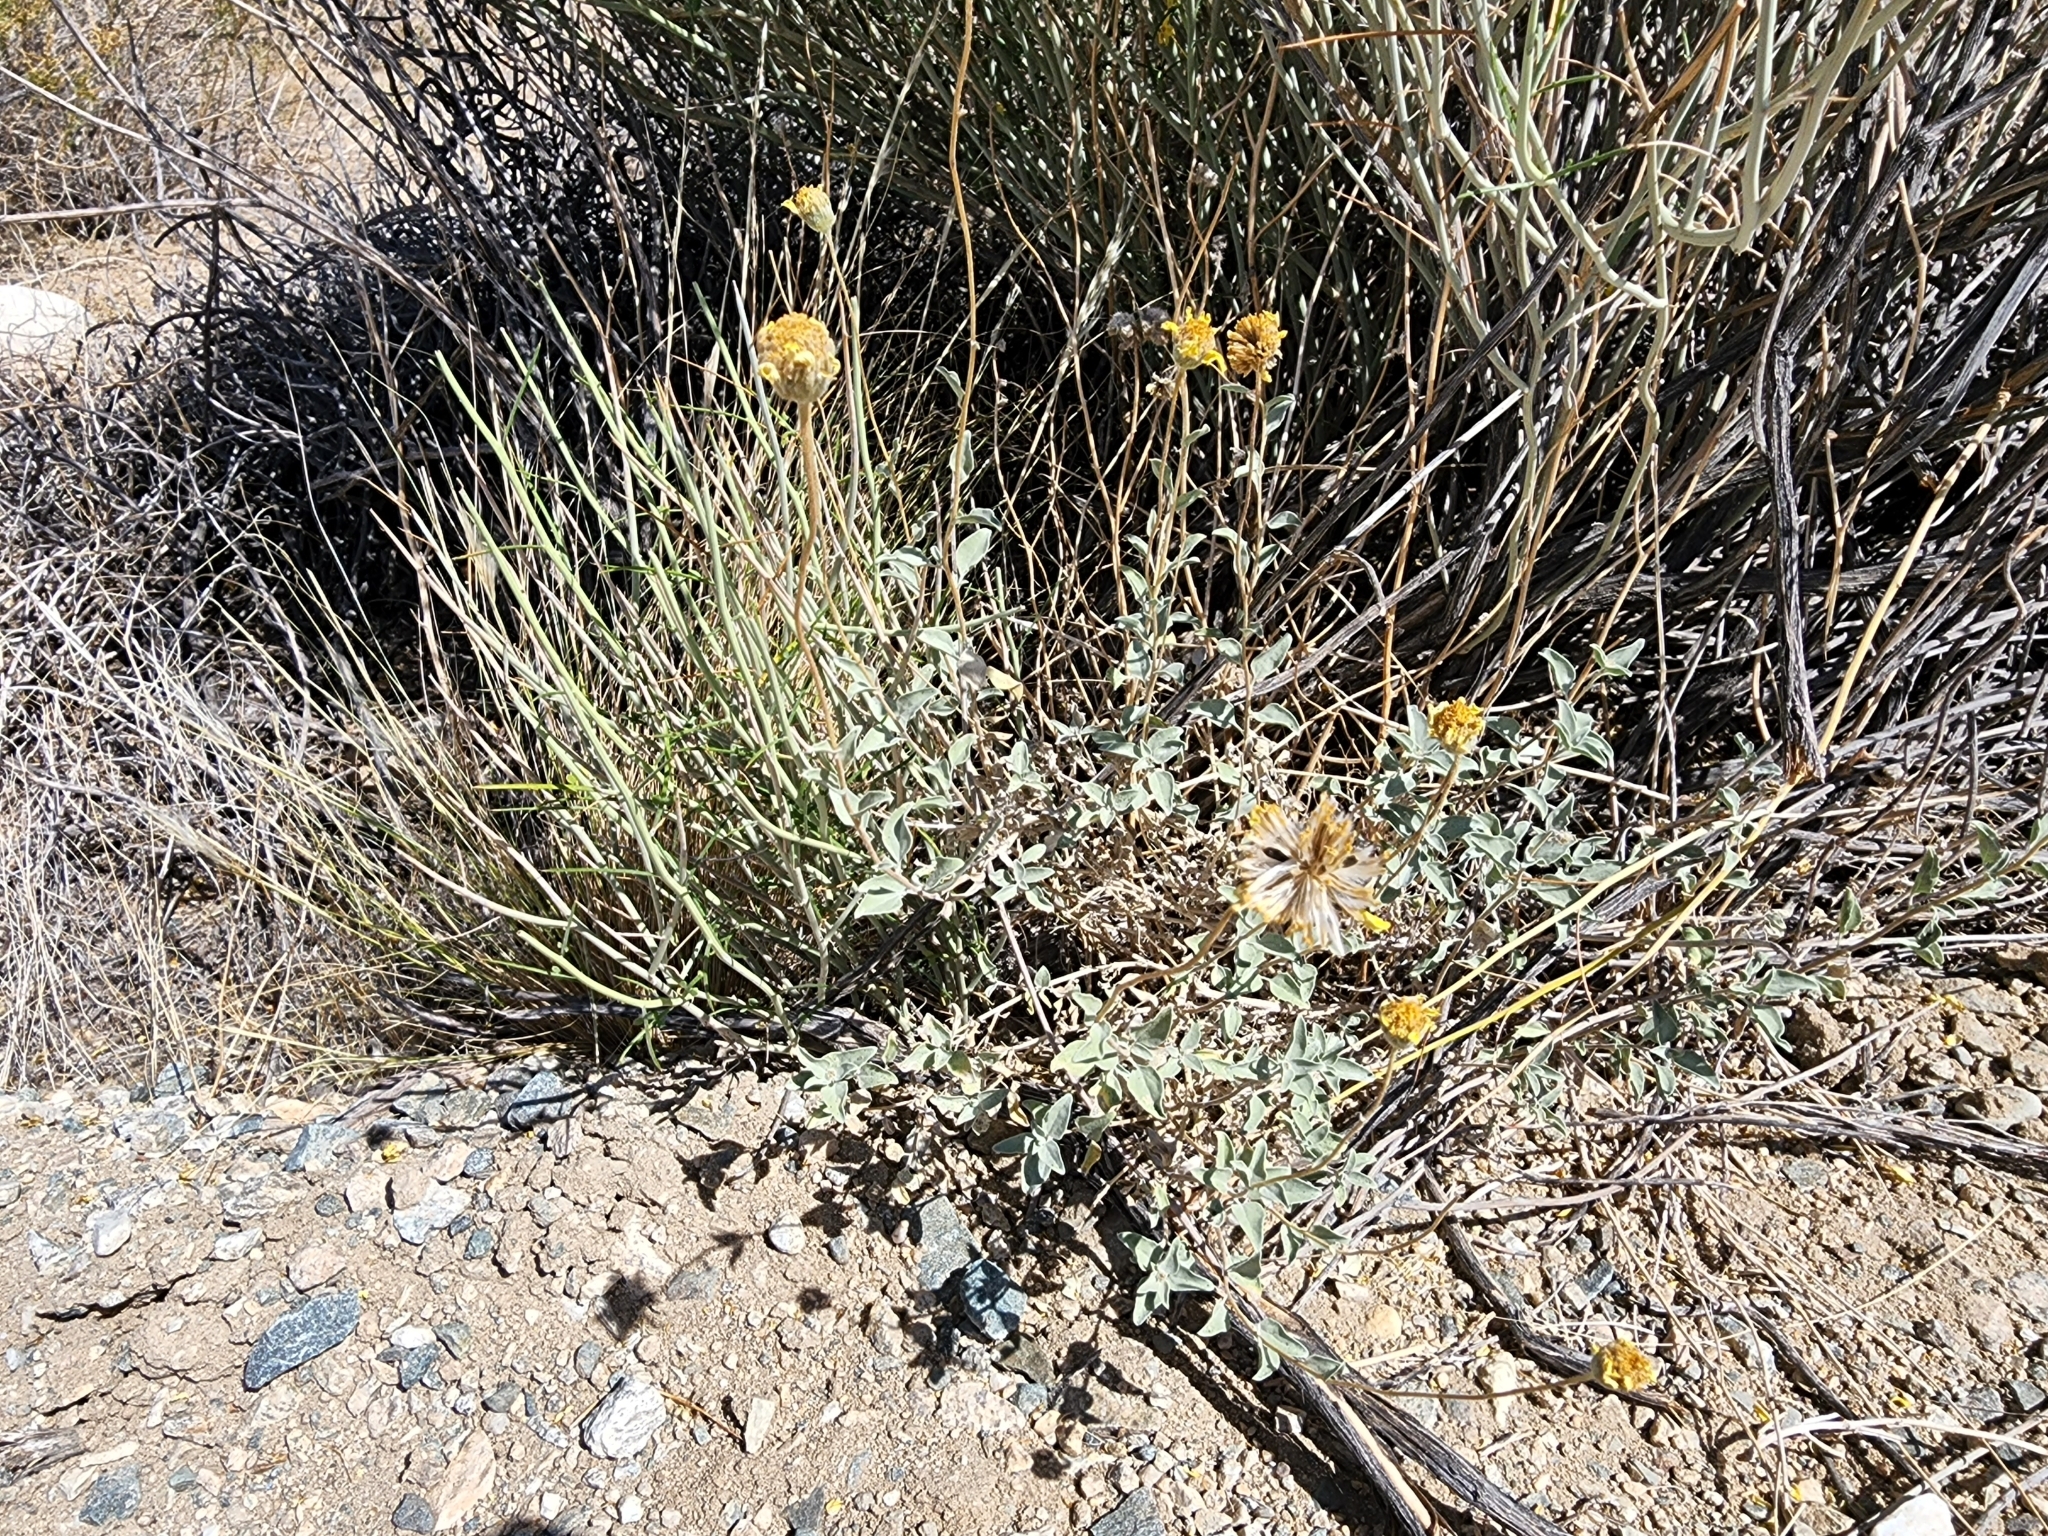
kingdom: Plantae
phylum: Tracheophyta
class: Magnoliopsida
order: Asterales
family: Asteraceae
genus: Encelia
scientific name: Encelia actoni
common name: Acton encelia
